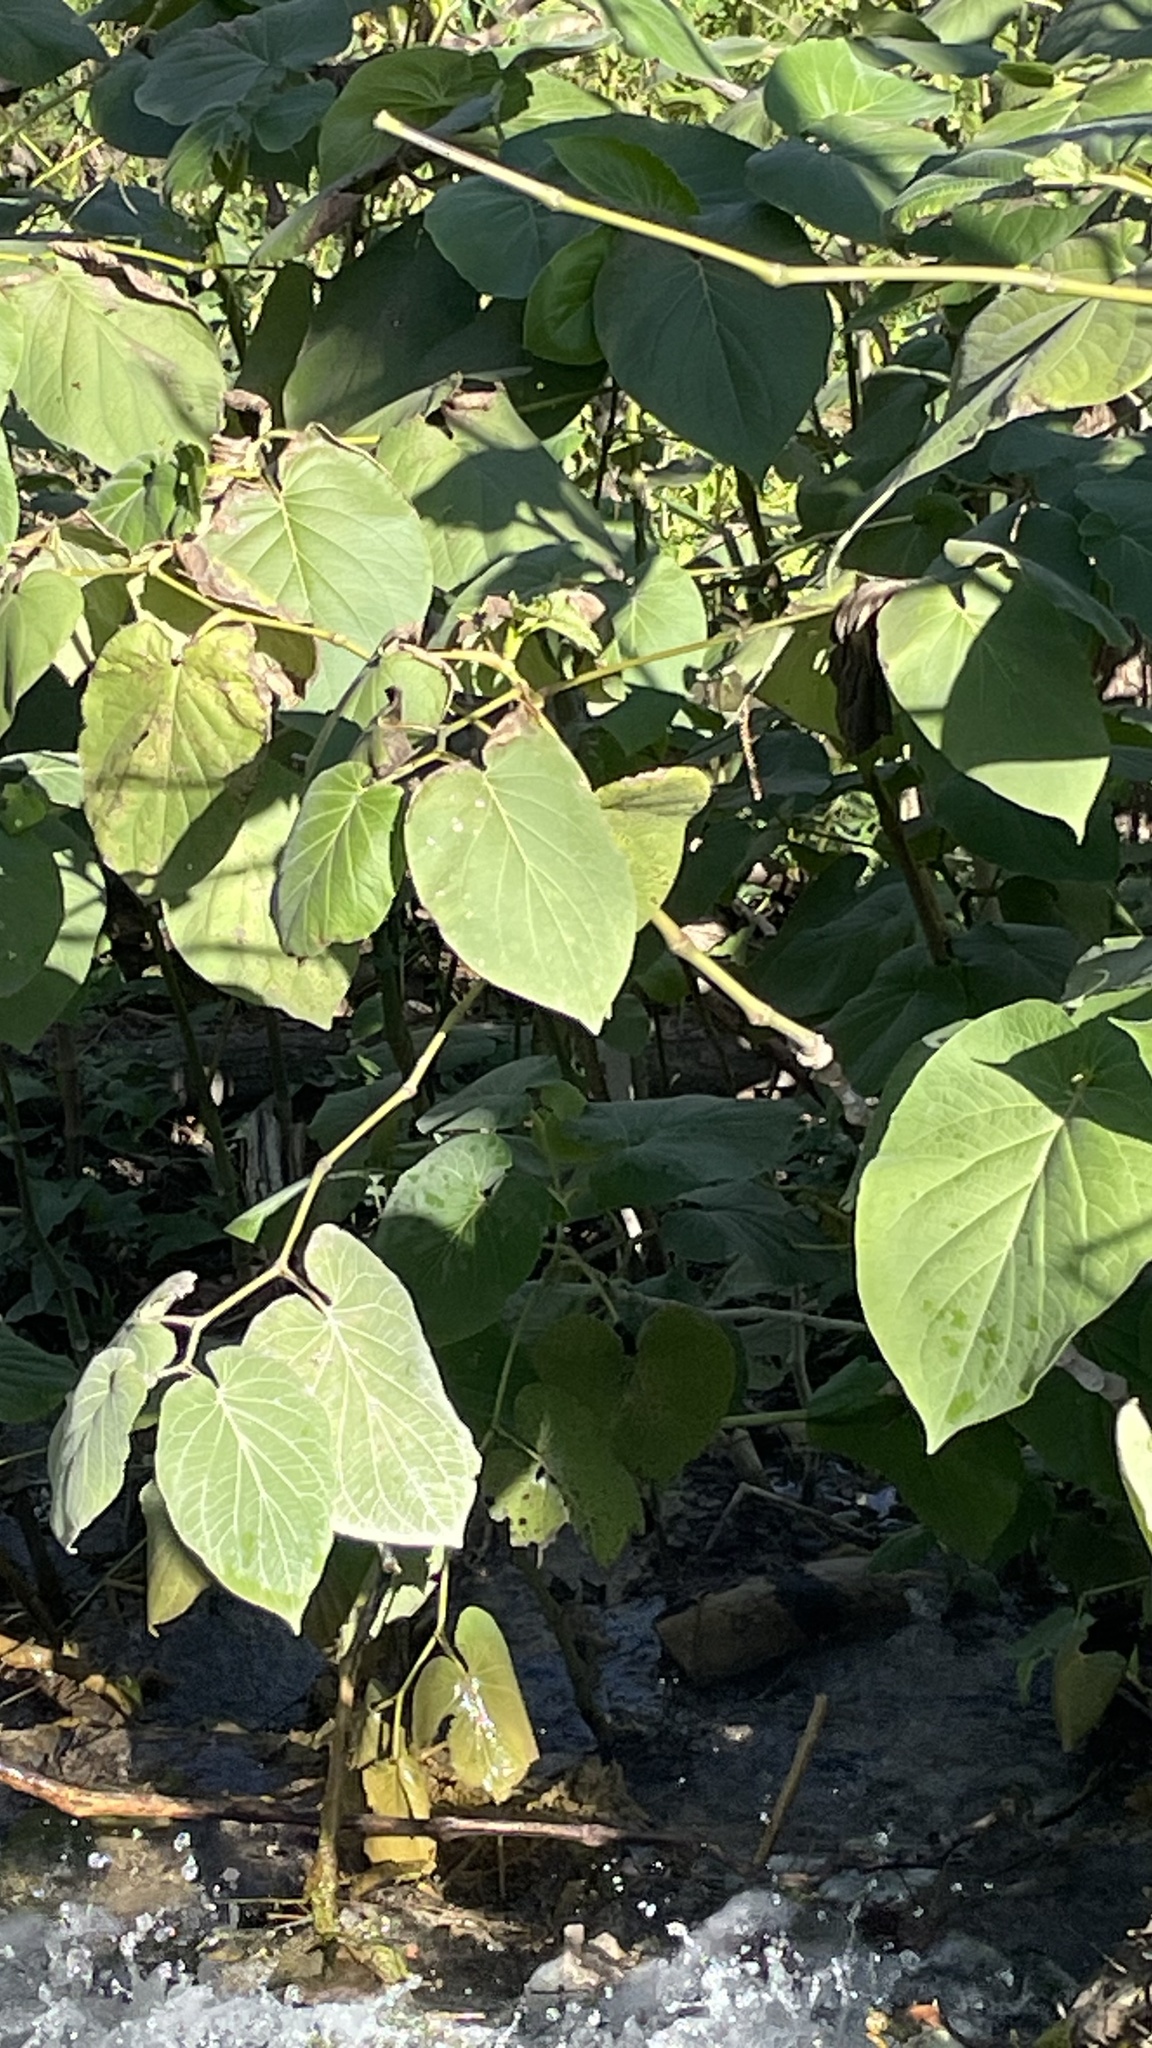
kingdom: Plantae
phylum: Tracheophyta
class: Magnoliopsida
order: Piperales
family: Piperaceae
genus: Piper
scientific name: Piper auritum
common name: Vera cruz pepper
